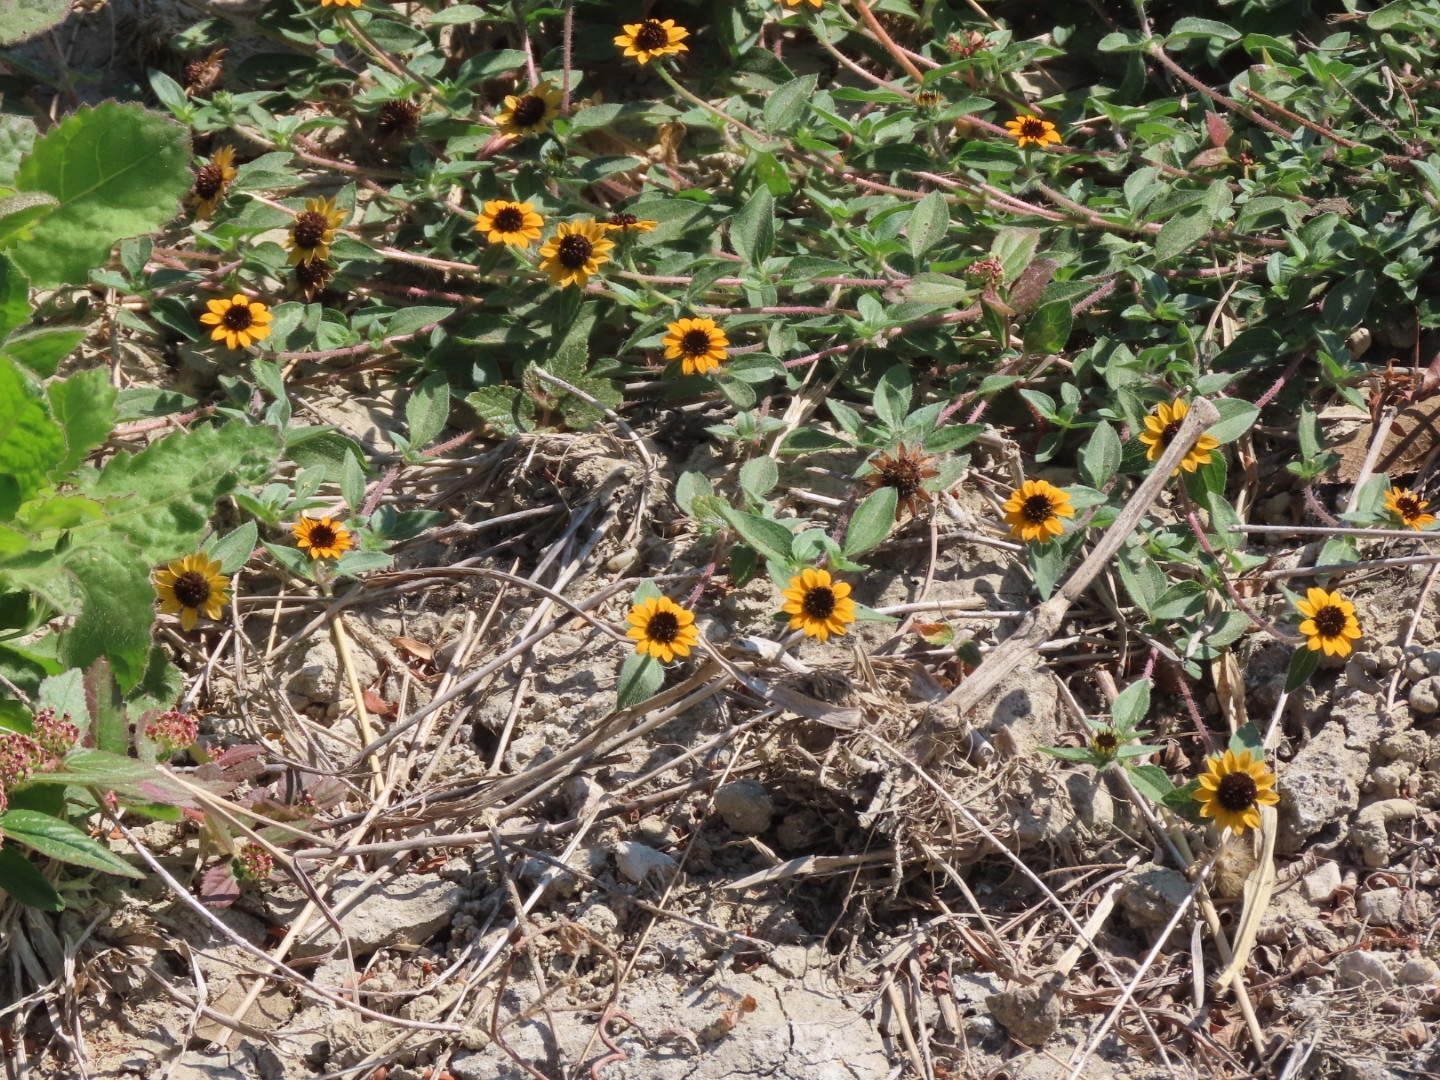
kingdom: Plantae
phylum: Tracheophyta
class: Magnoliopsida
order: Asterales
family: Asteraceae
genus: Sanvitalia
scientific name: Sanvitalia procumbens
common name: Mexican creeping zinnia
